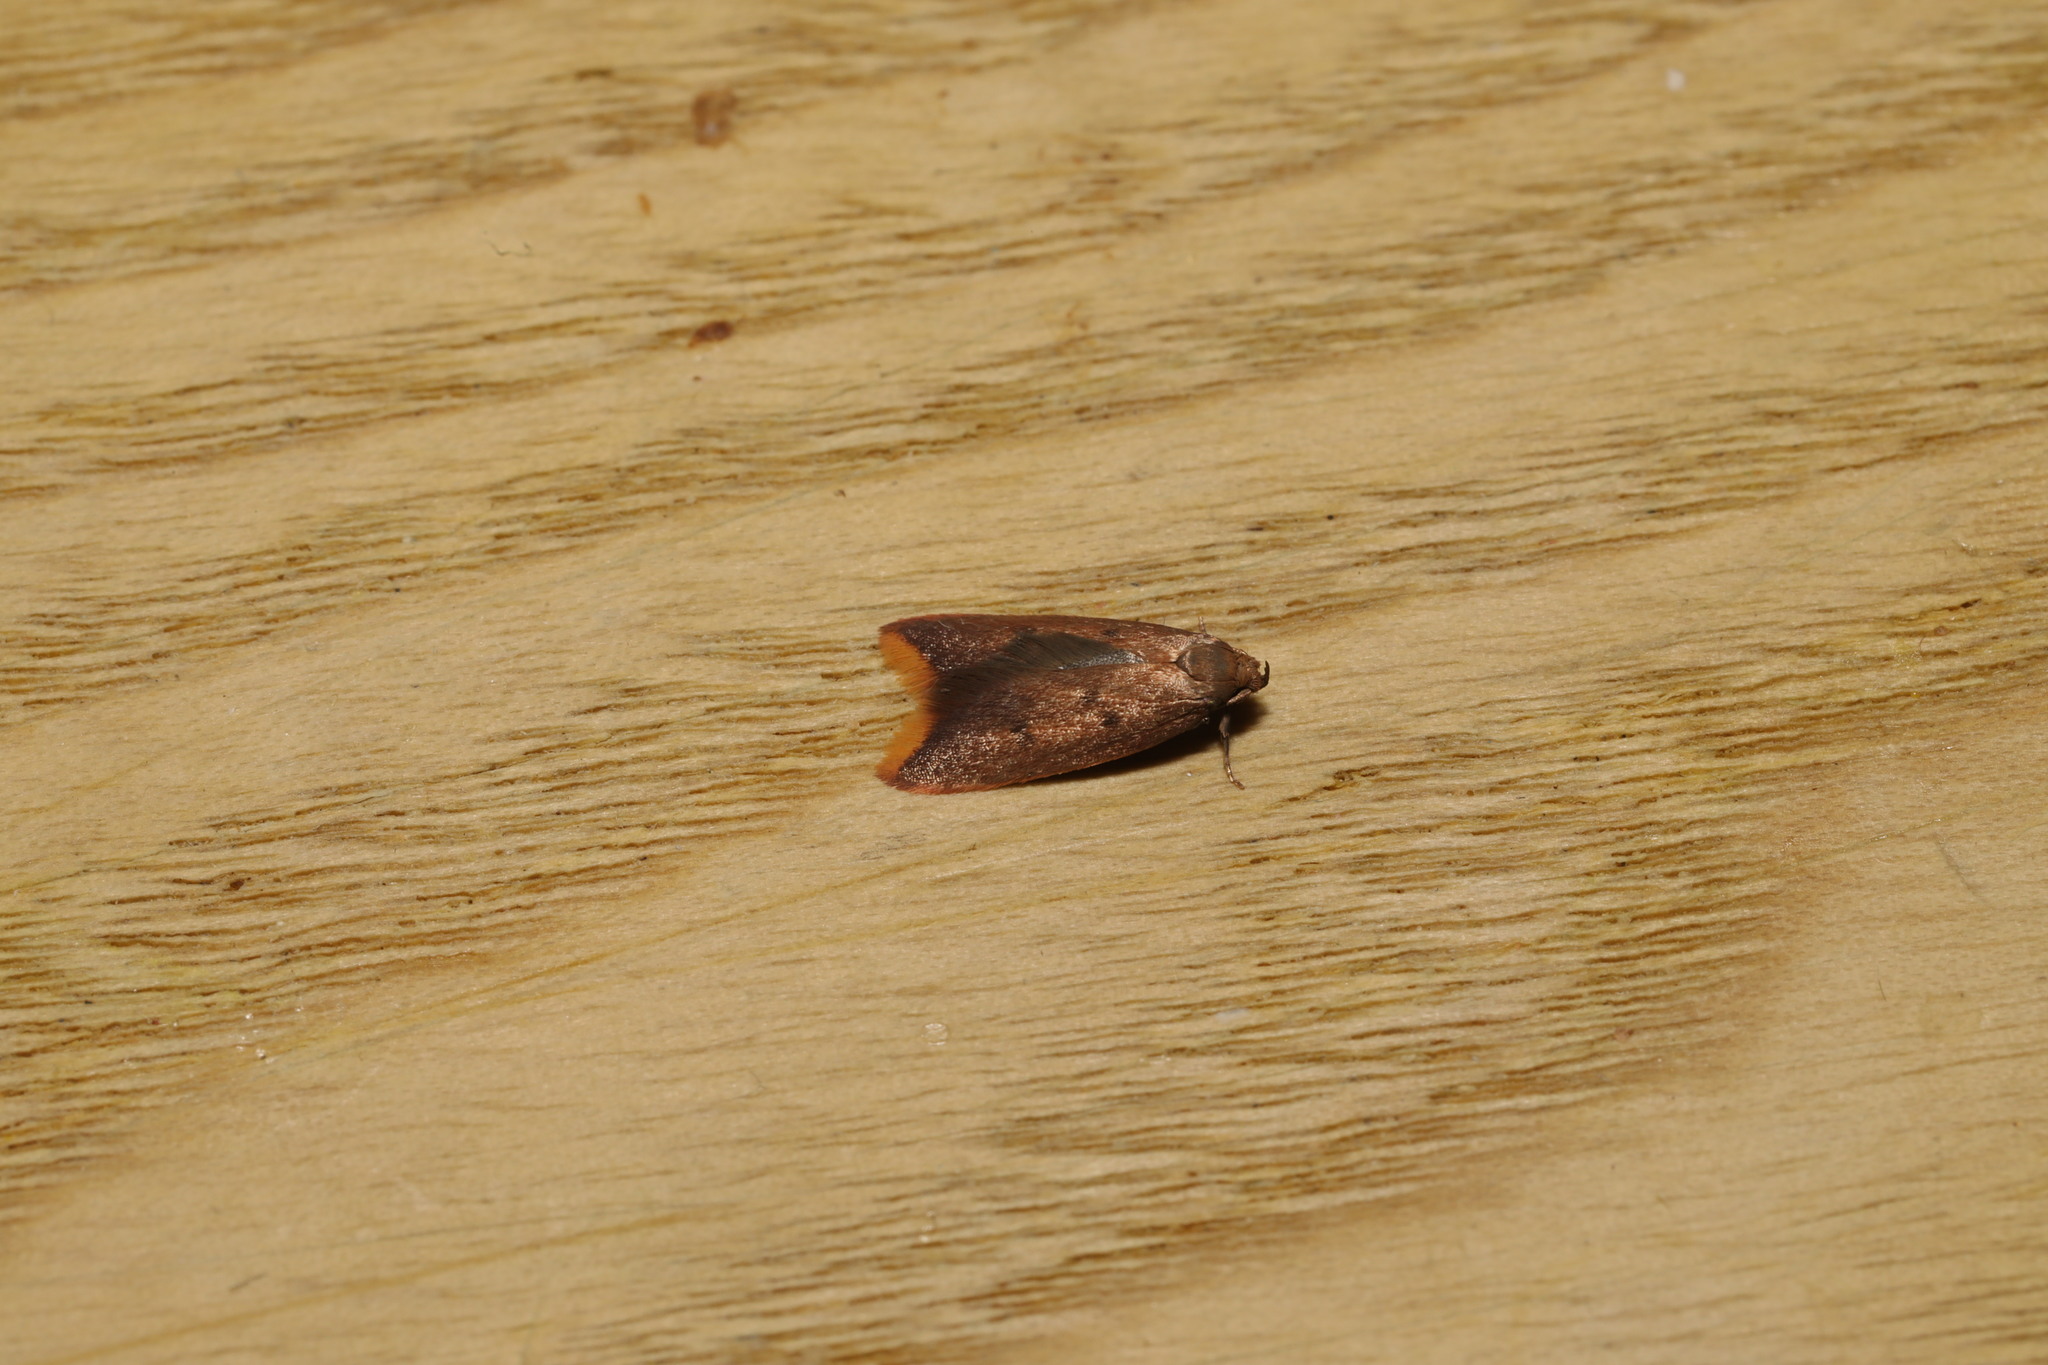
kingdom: Animalia
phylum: Arthropoda
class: Insecta
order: Lepidoptera
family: Oecophoridae
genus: Tachystola
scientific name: Tachystola acroxantha
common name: Ruddy streak
